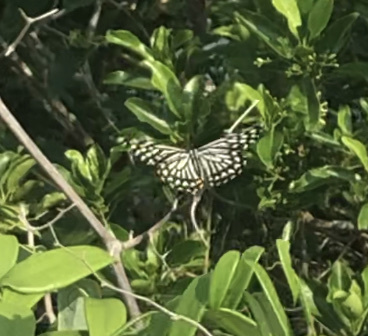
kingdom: Animalia
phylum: Arthropoda
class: Insecta
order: Lepidoptera
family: Papilionidae
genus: Chilasa
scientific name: Chilasa clytia
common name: Common mime
